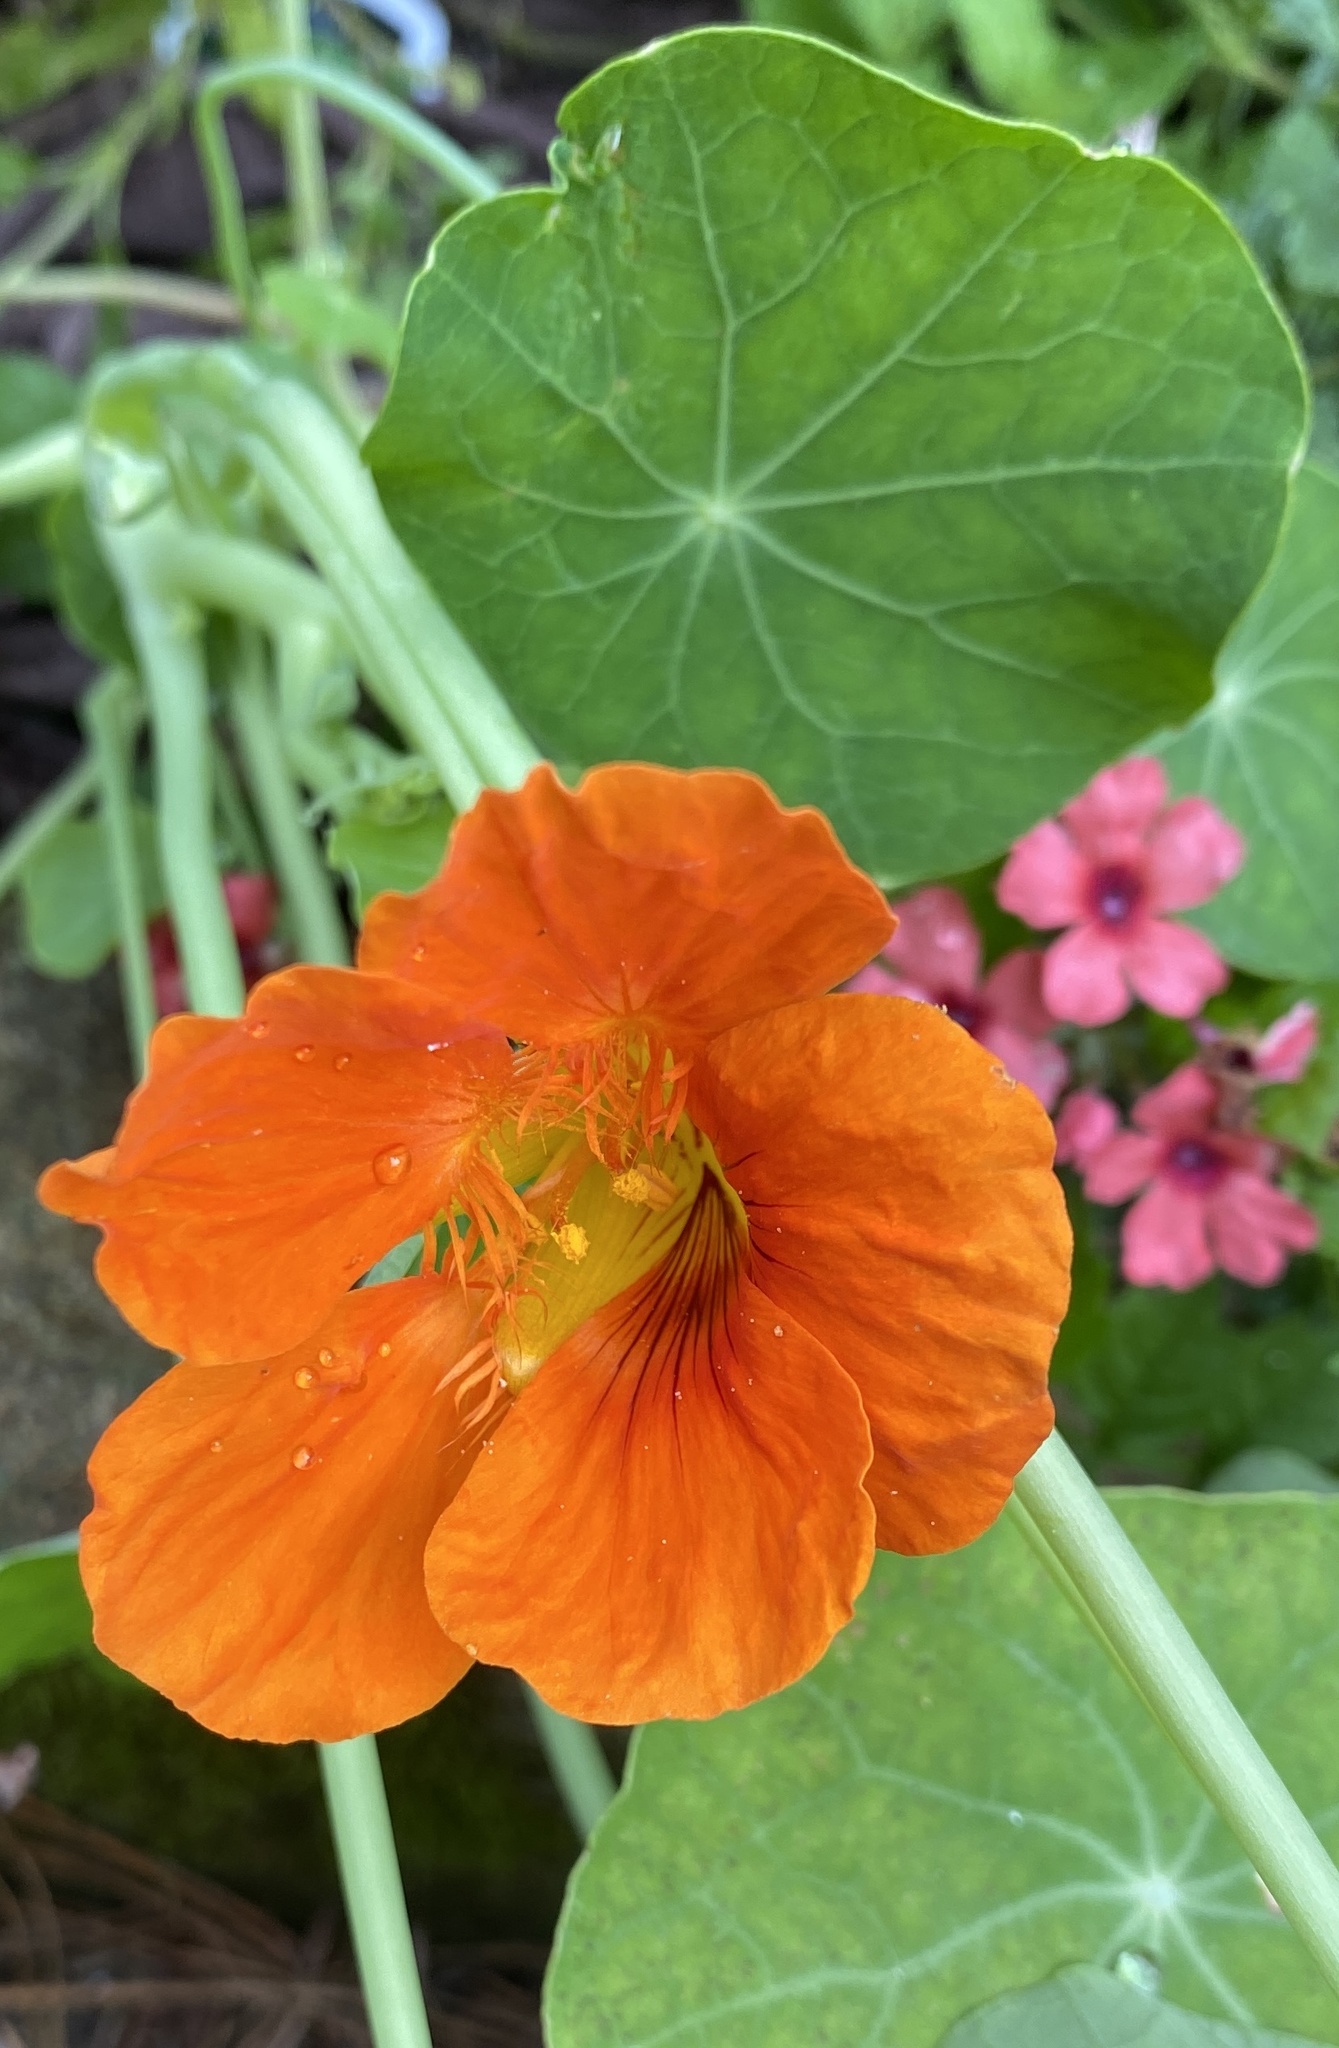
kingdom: Plantae
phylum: Tracheophyta
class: Magnoliopsida
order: Brassicales
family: Tropaeolaceae
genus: Tropaeolum
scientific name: Tropaeolum majus
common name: Nasturtium
